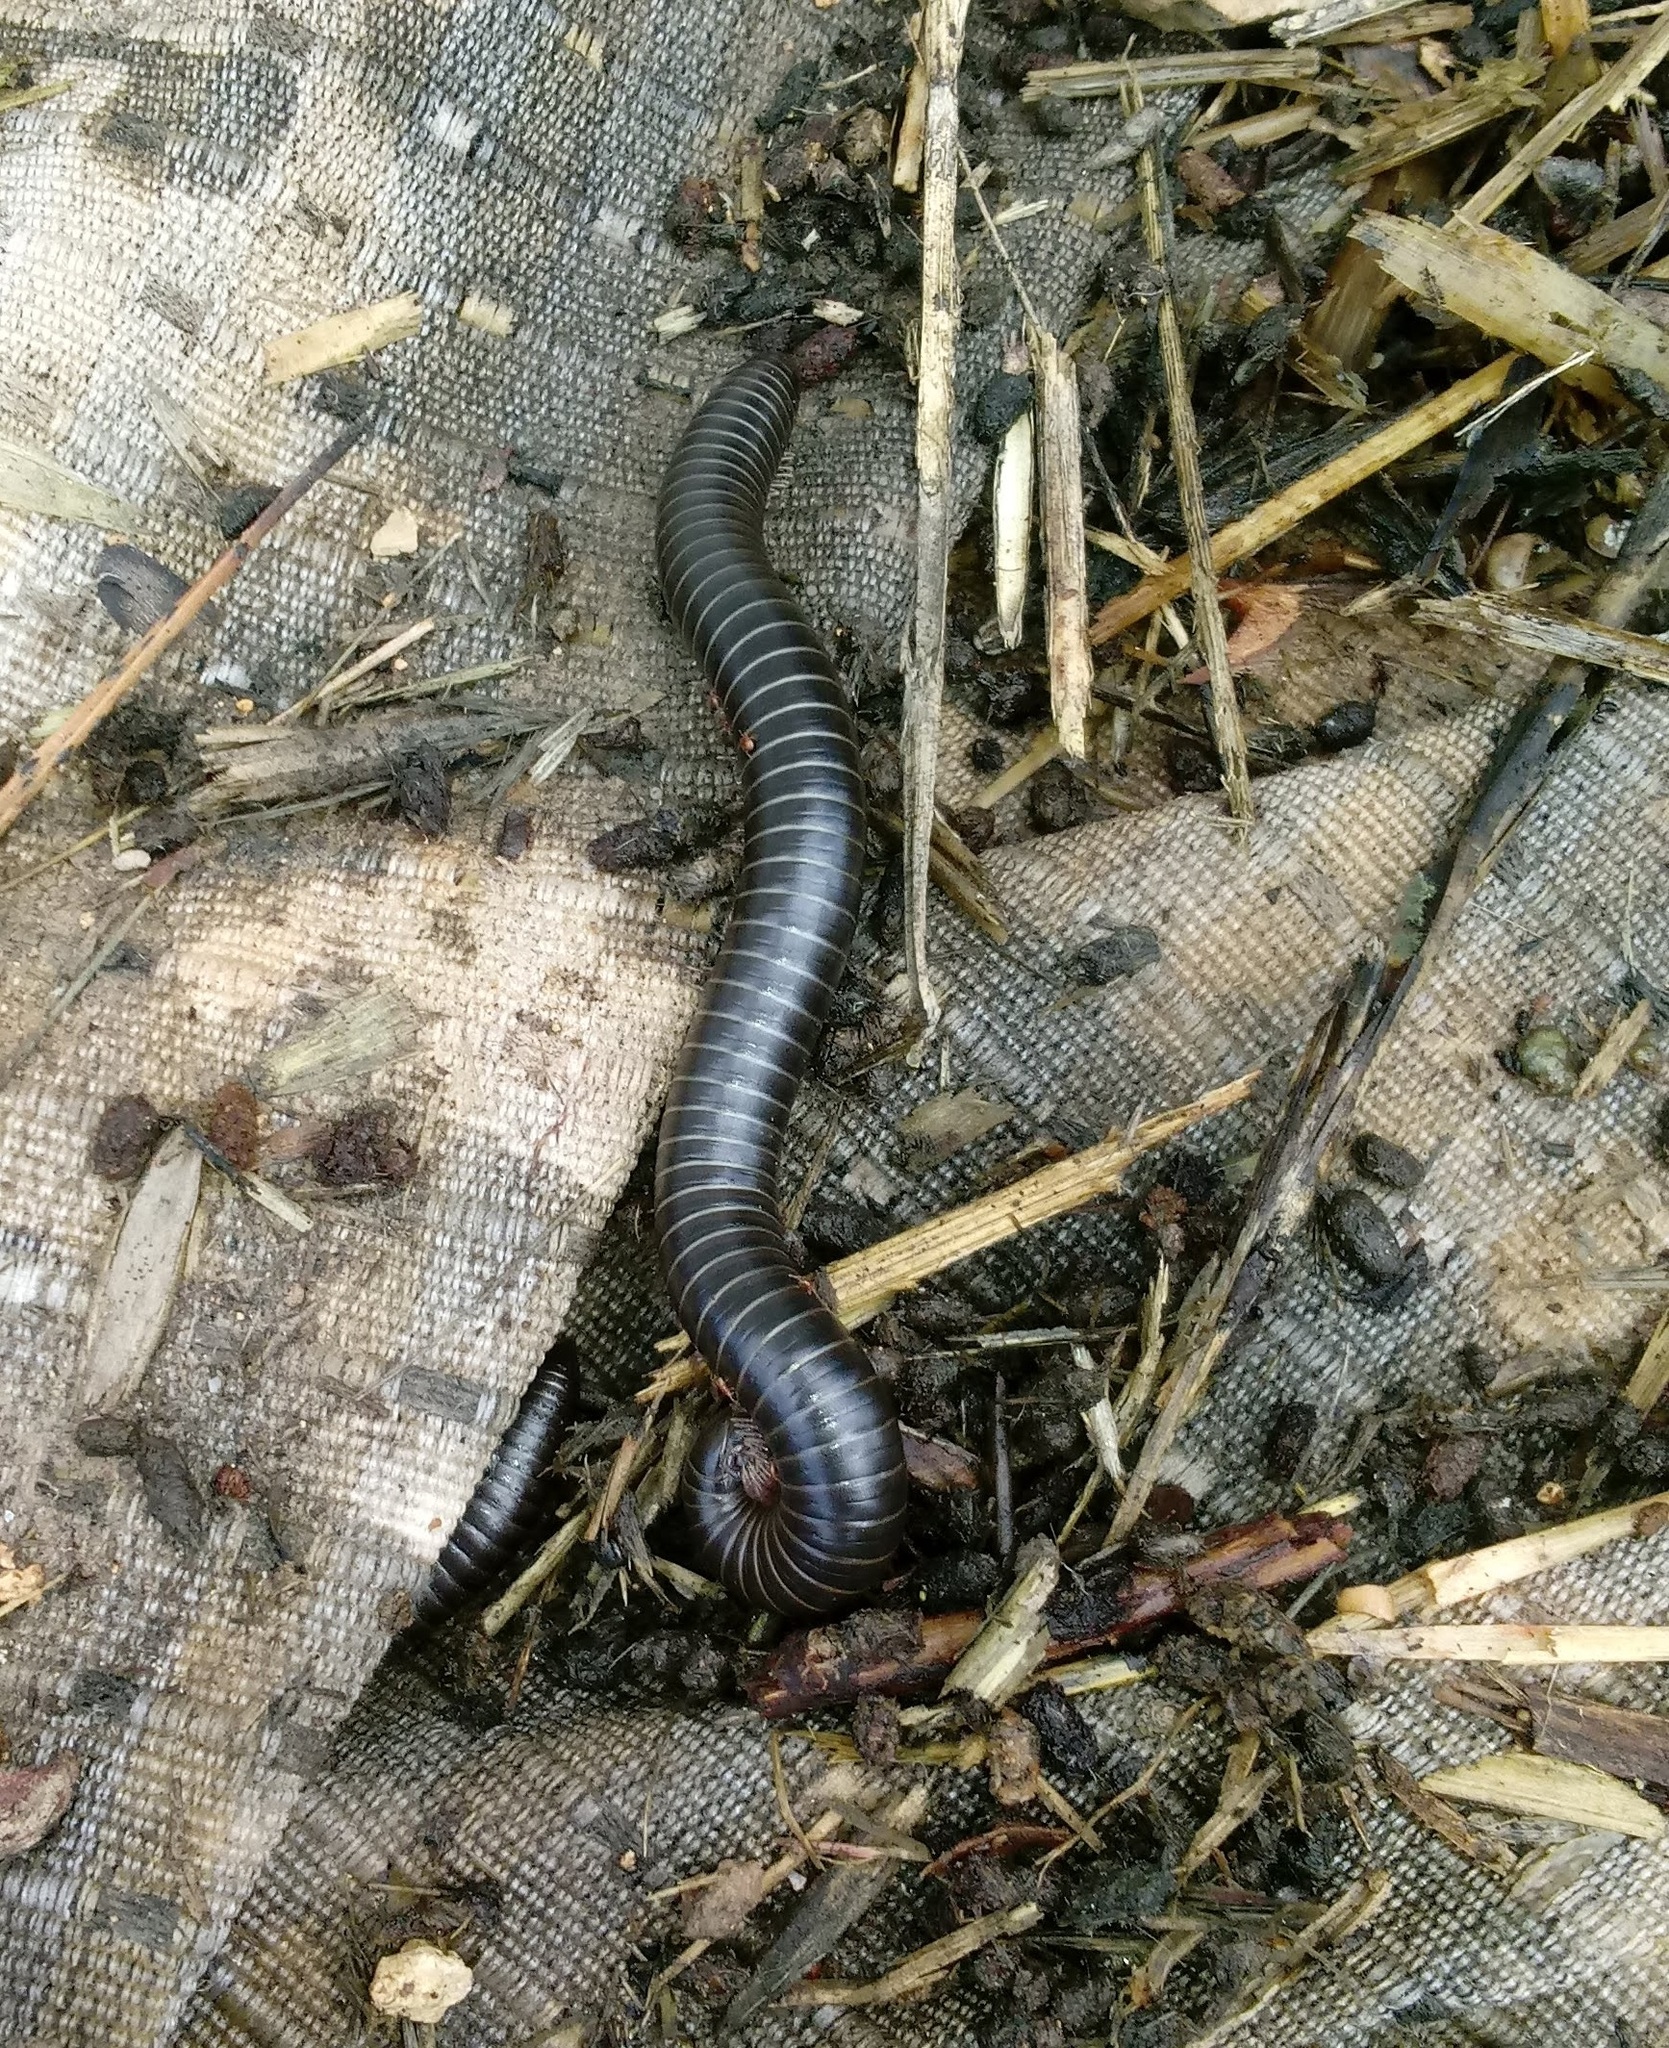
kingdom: Animalia
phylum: Arthropoda
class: Diplopoda
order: Spirostreptida
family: Spirostreptidae
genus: Archispirostreptus
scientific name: Archispirostreptus syriacus
